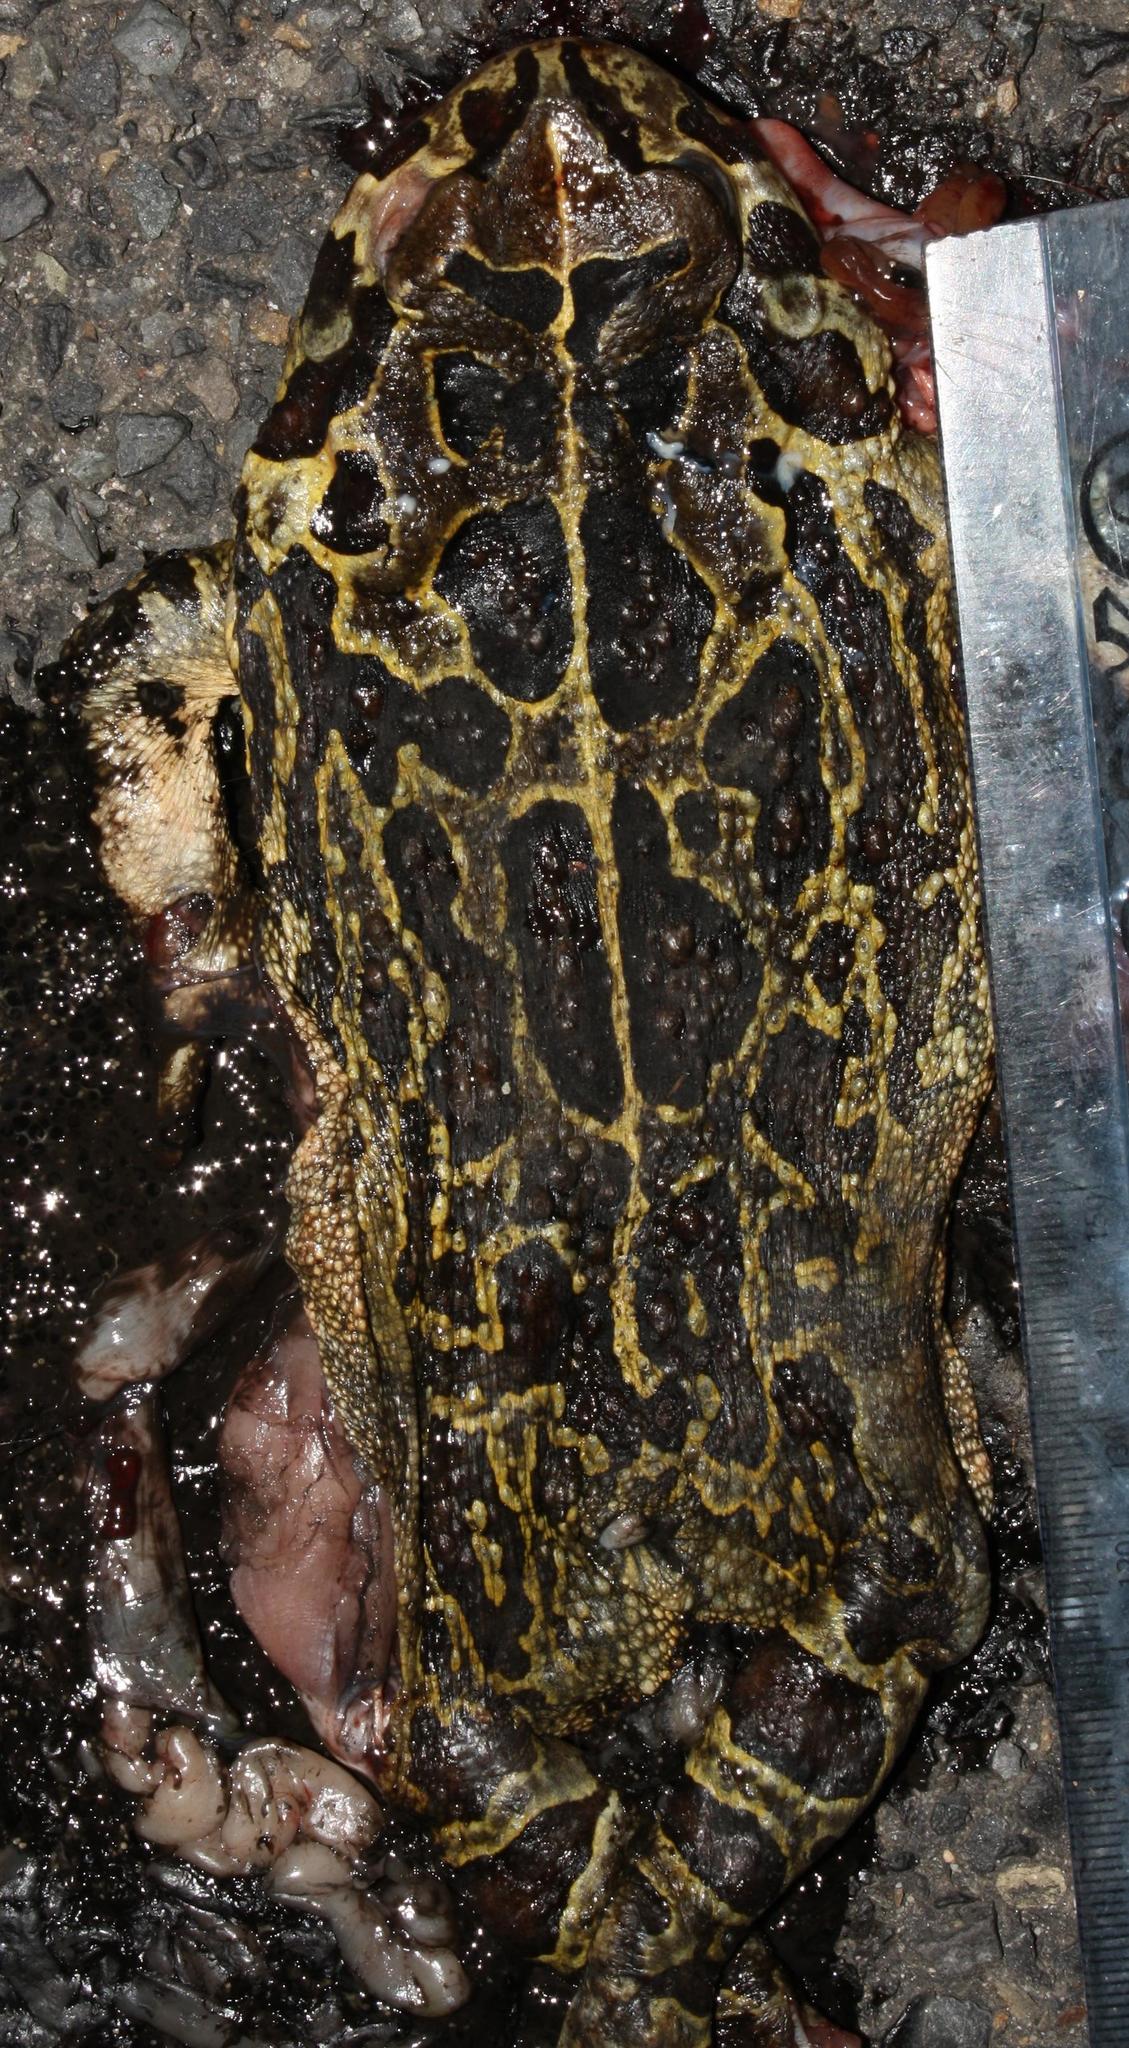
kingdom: Animalia
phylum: Chordata
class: Amphibia
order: Anura
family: Bufonidae
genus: Sclerophrys
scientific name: Sclerophrys pantherina
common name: Panther toad
